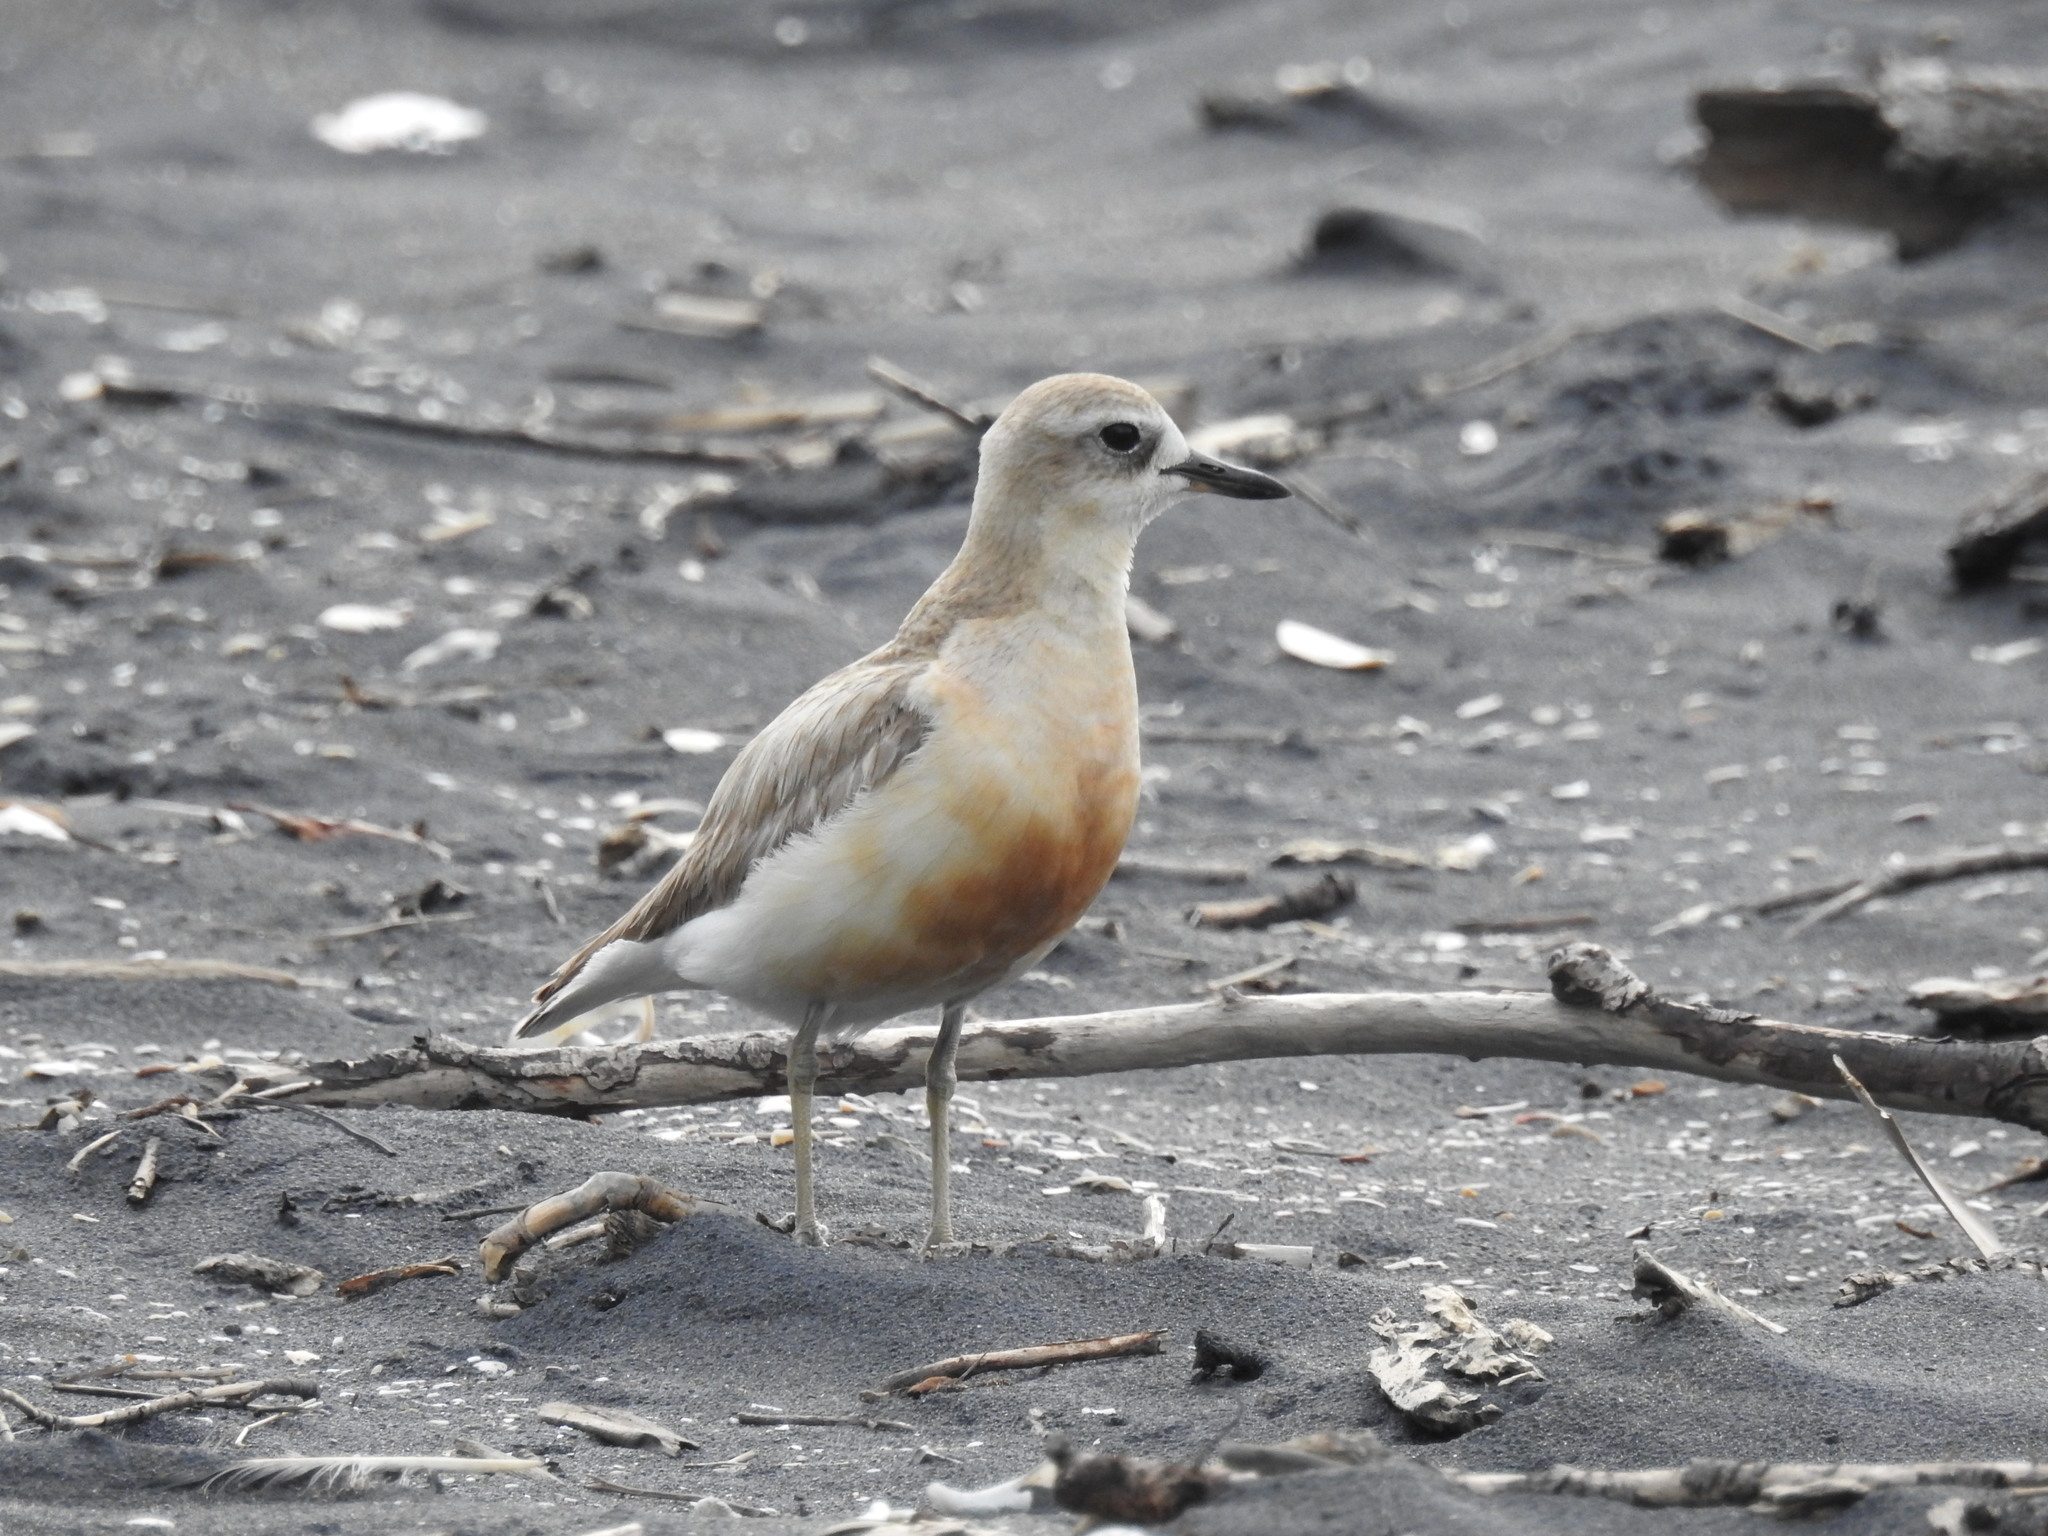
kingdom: Animalia
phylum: Chordata
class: Aves
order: Charadriiformes
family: Charadriidae
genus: Anarhynchus
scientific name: Anarhynchus
